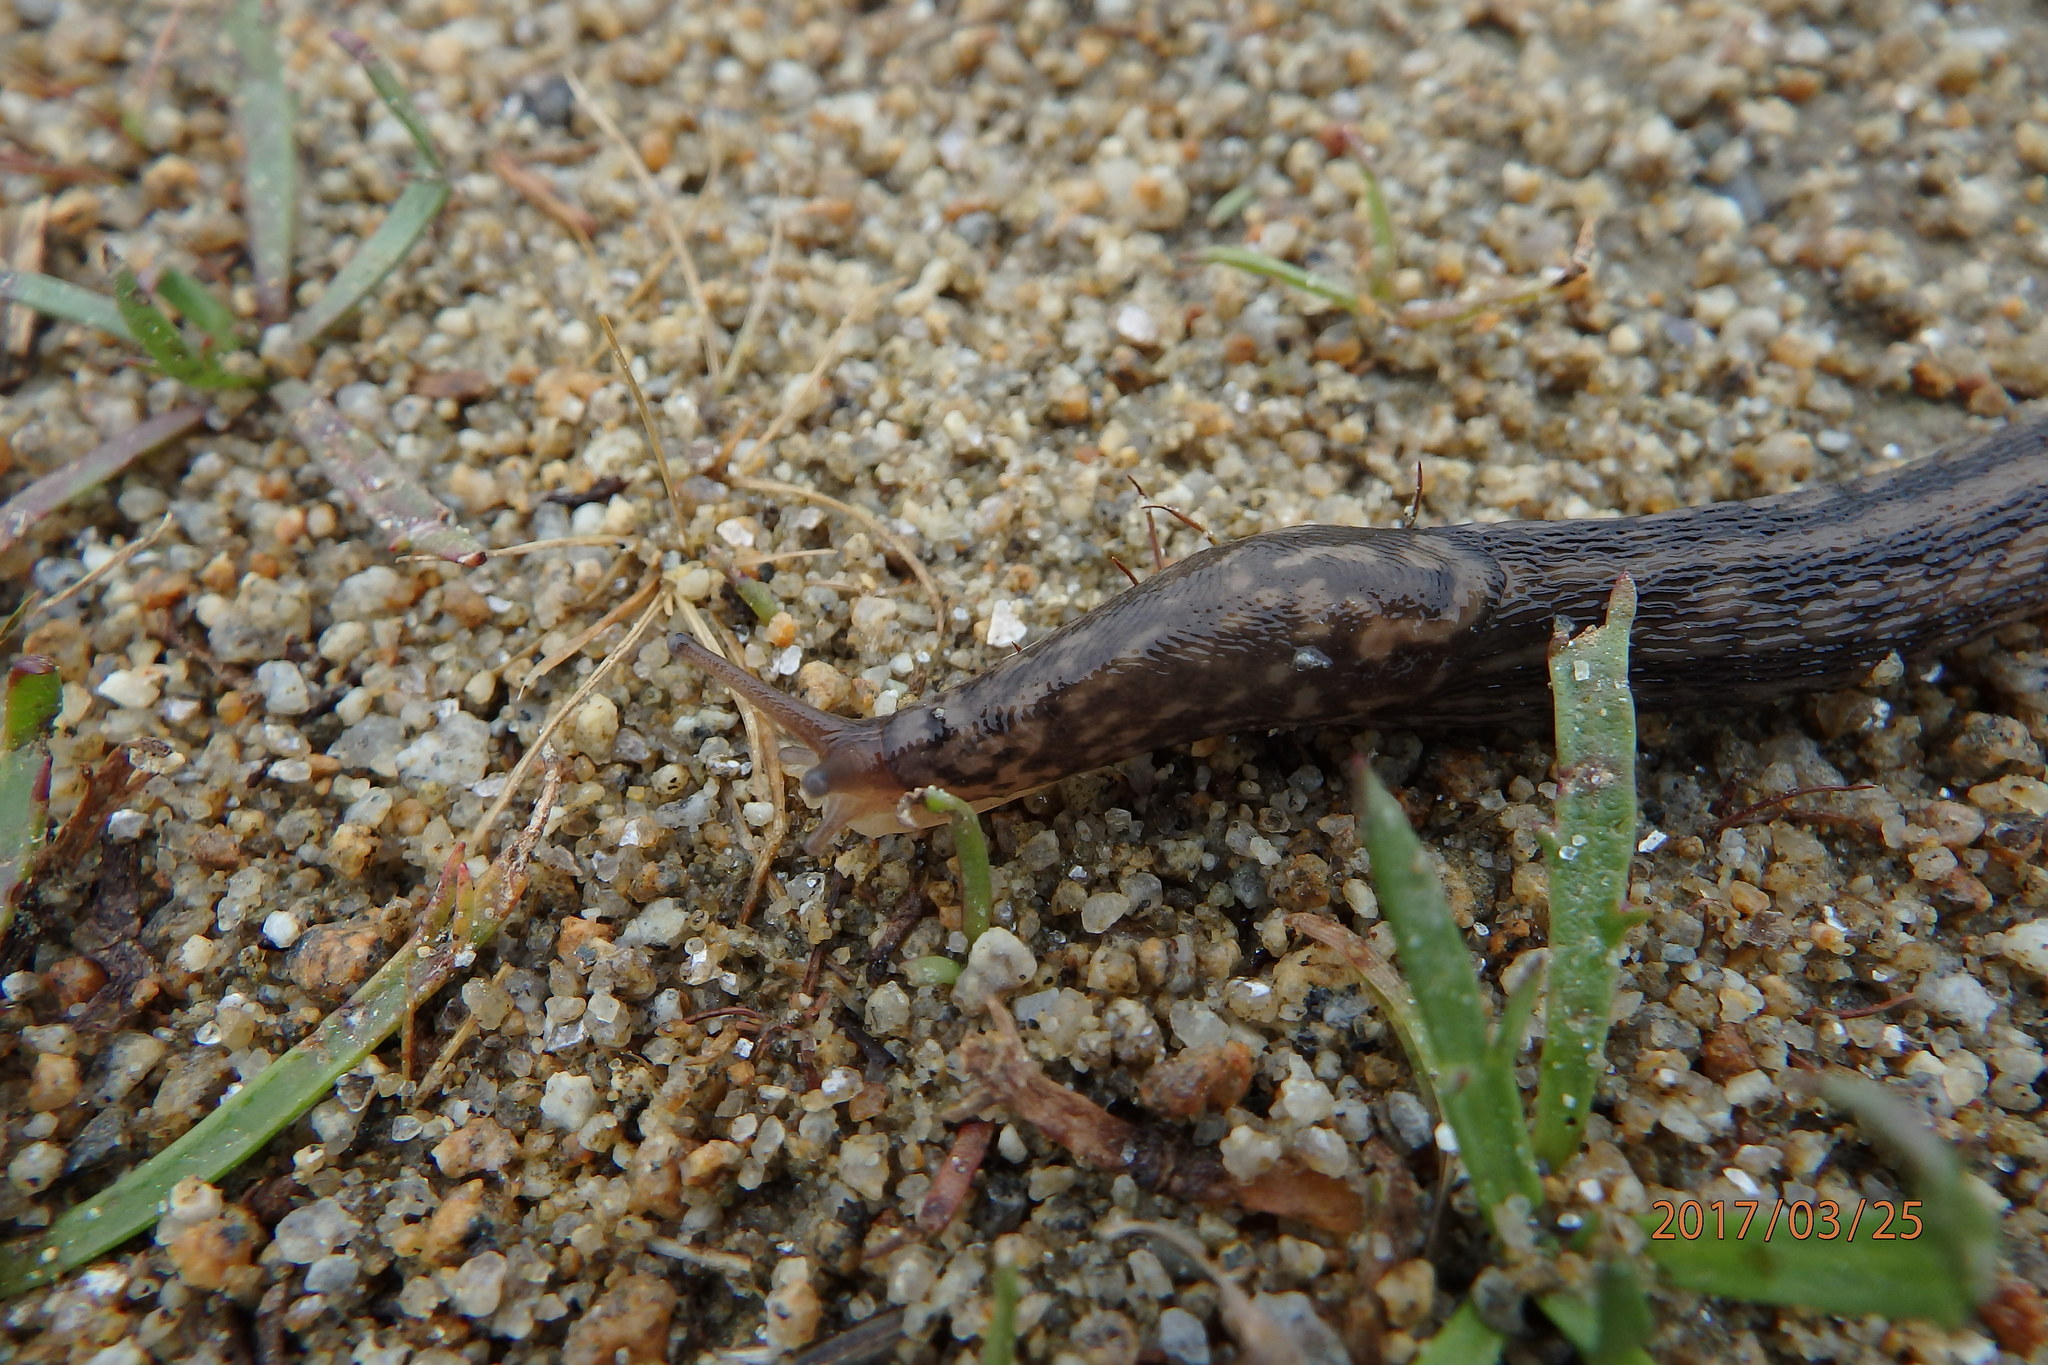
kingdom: Animalia
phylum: Mollusca
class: Gastropoda
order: Stylommatophora
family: Limacidae
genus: Limax
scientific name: Limax maximus
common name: Great grey slug
